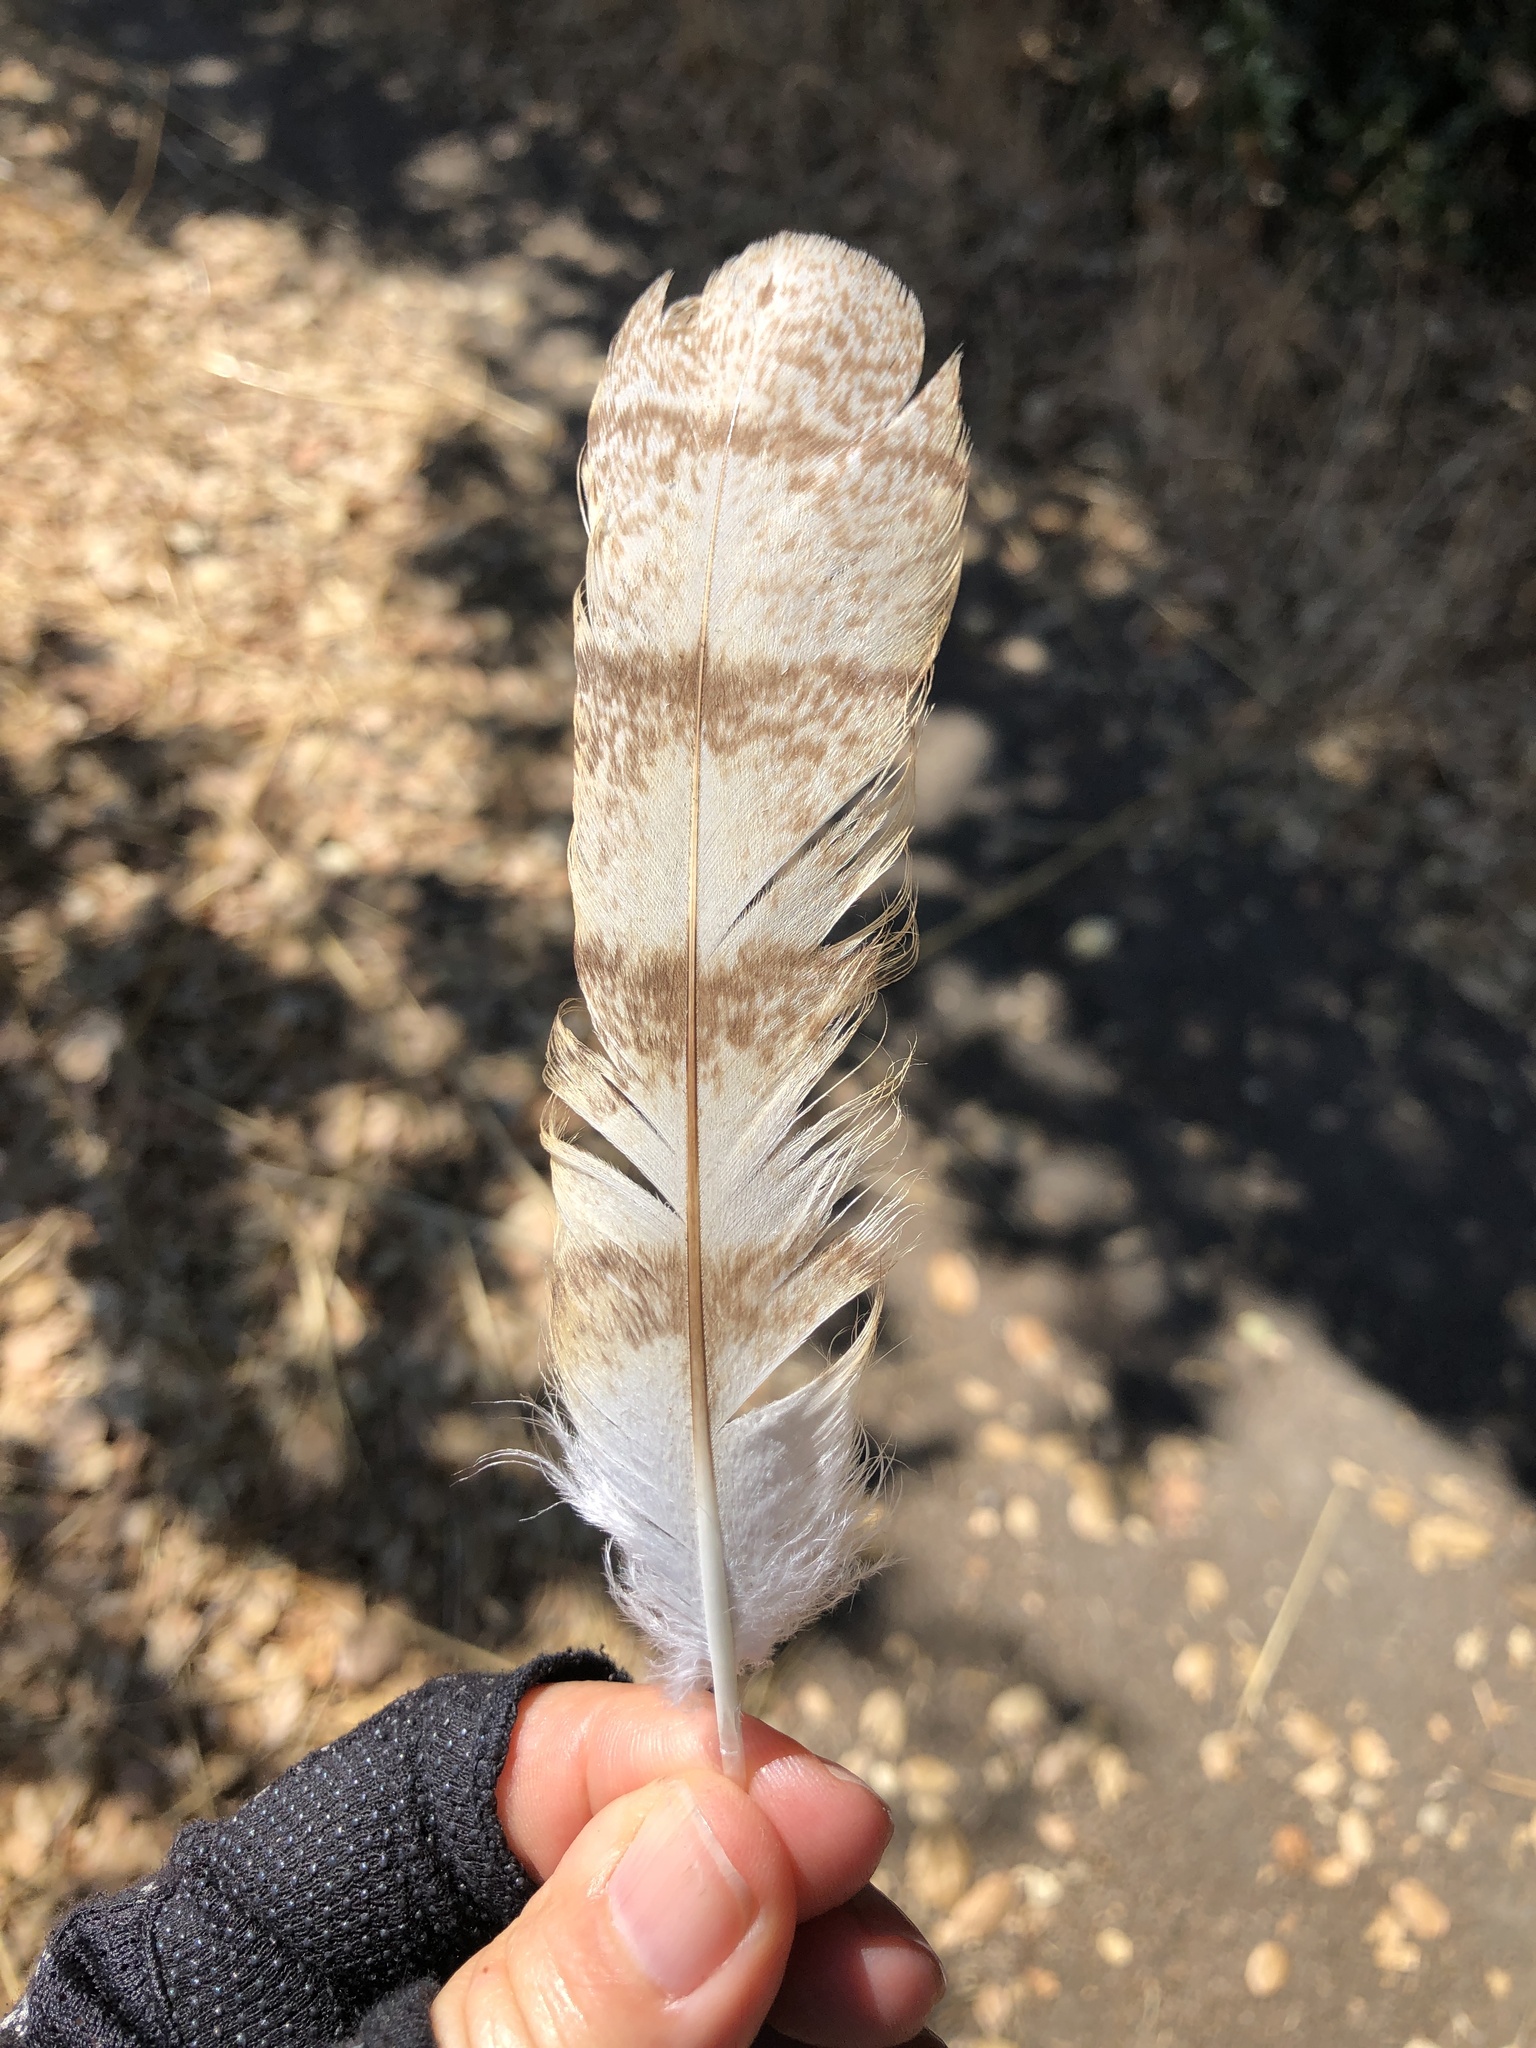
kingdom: Animalia
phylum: Chordata
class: Aves
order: Strigiformes
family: Tytonidae
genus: Tyto
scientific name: Tyto alba
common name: Barn owl
